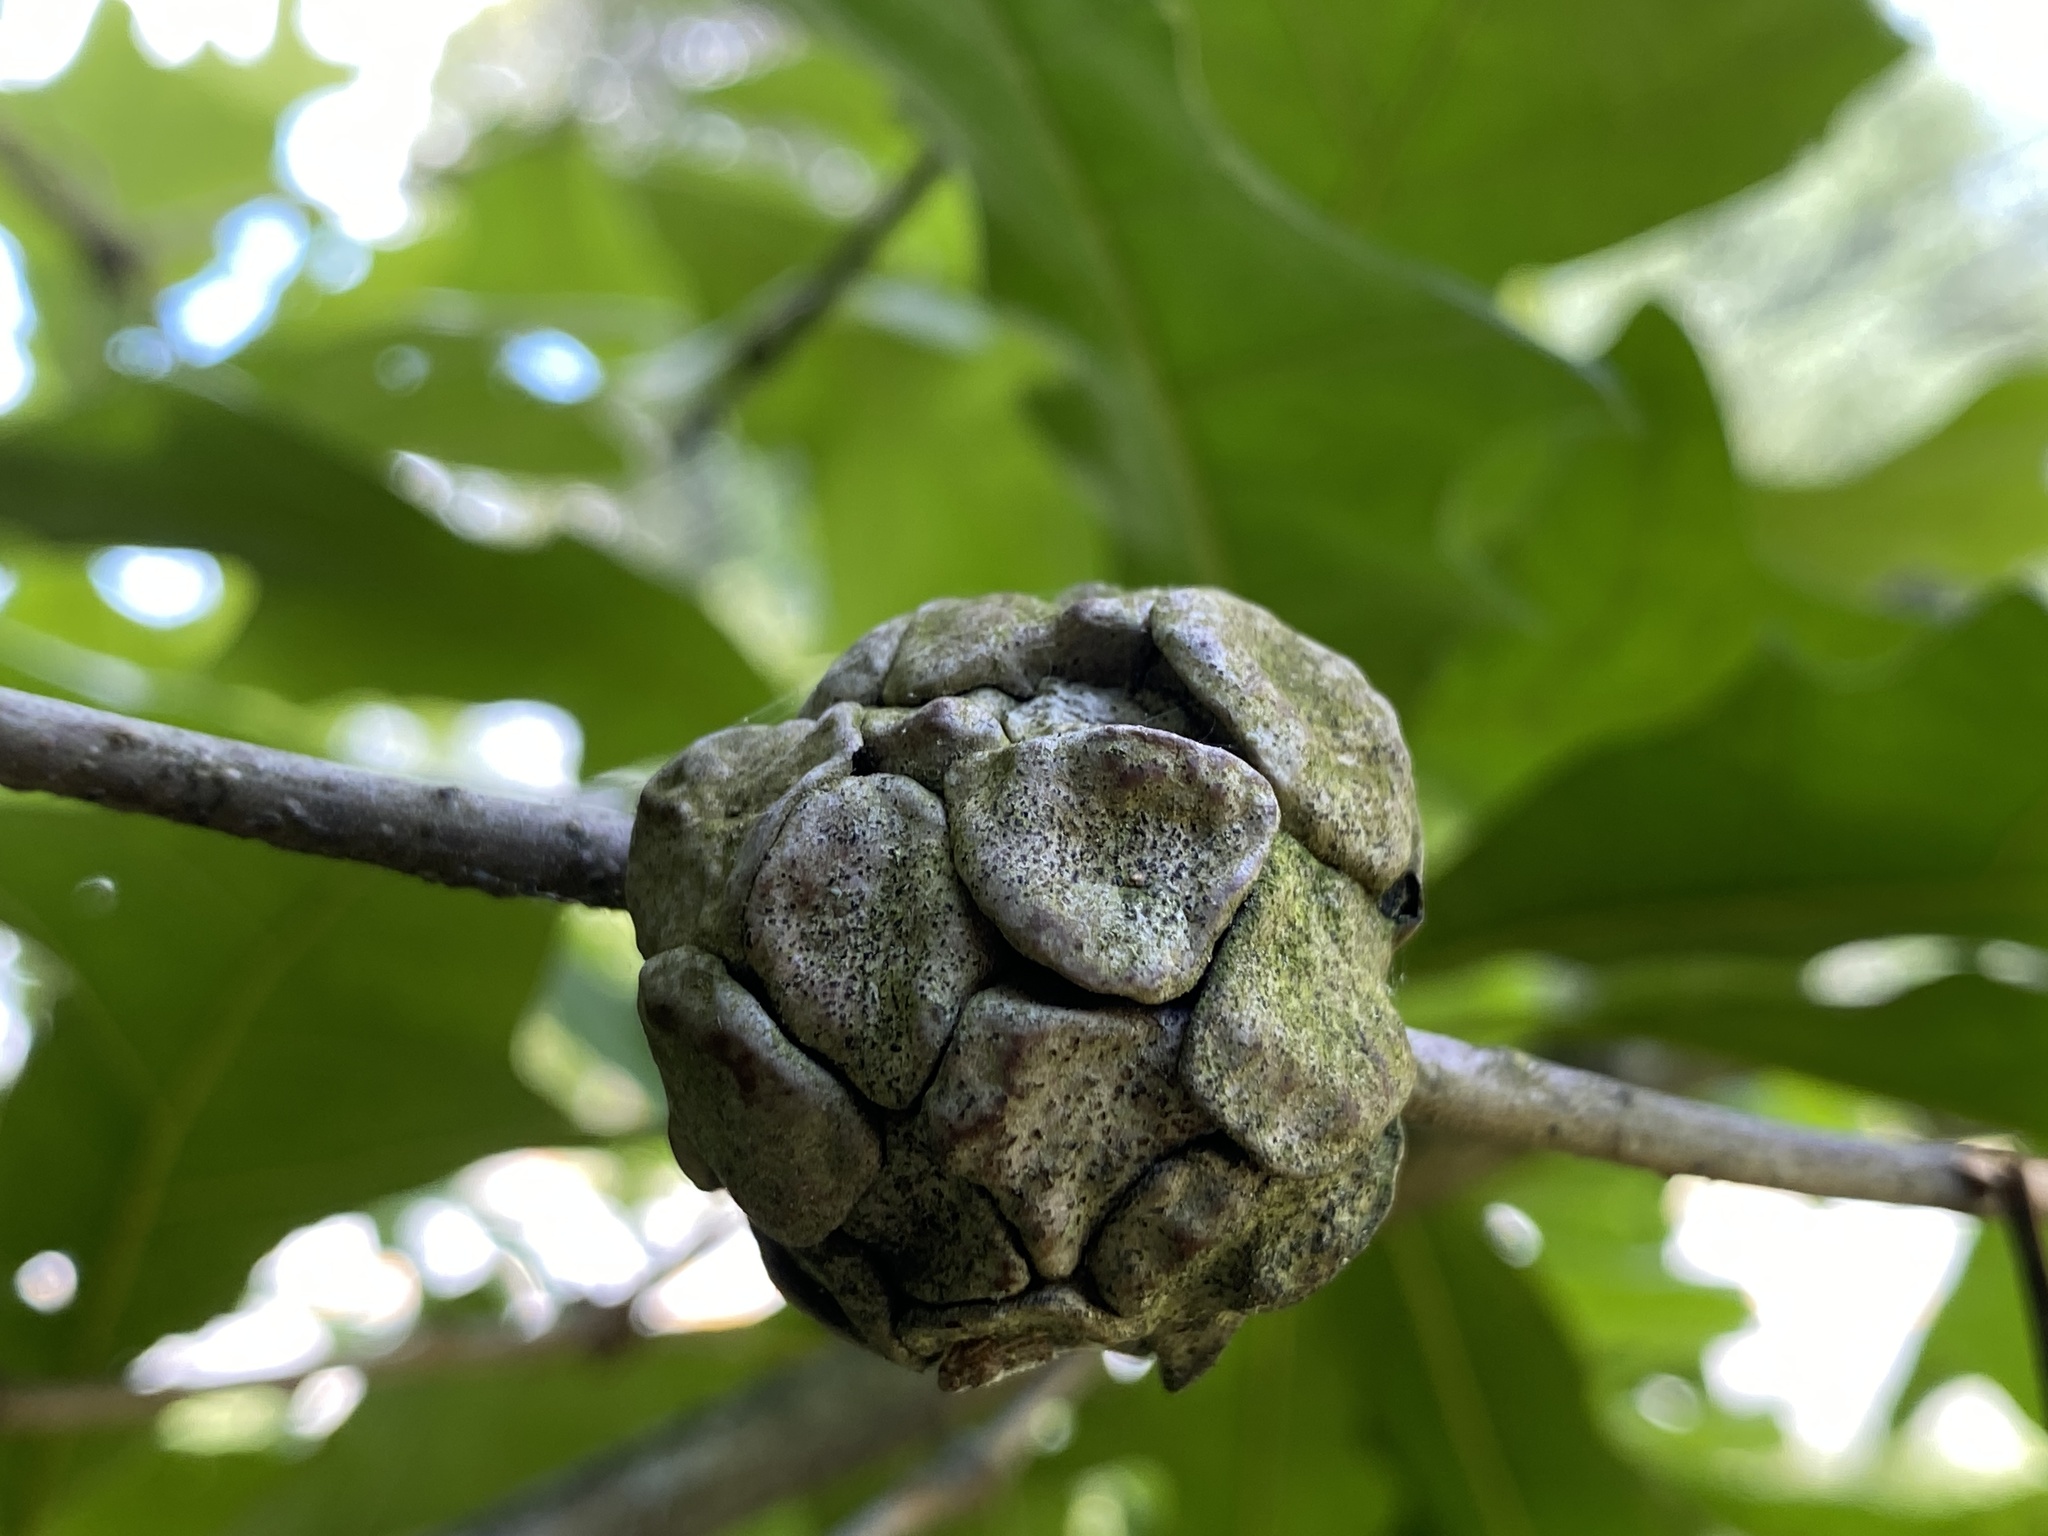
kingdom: Animalia
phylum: Arthropoda
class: Insecta
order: Hymenoptera
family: Cynipidae
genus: Andricus
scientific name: Andricus
